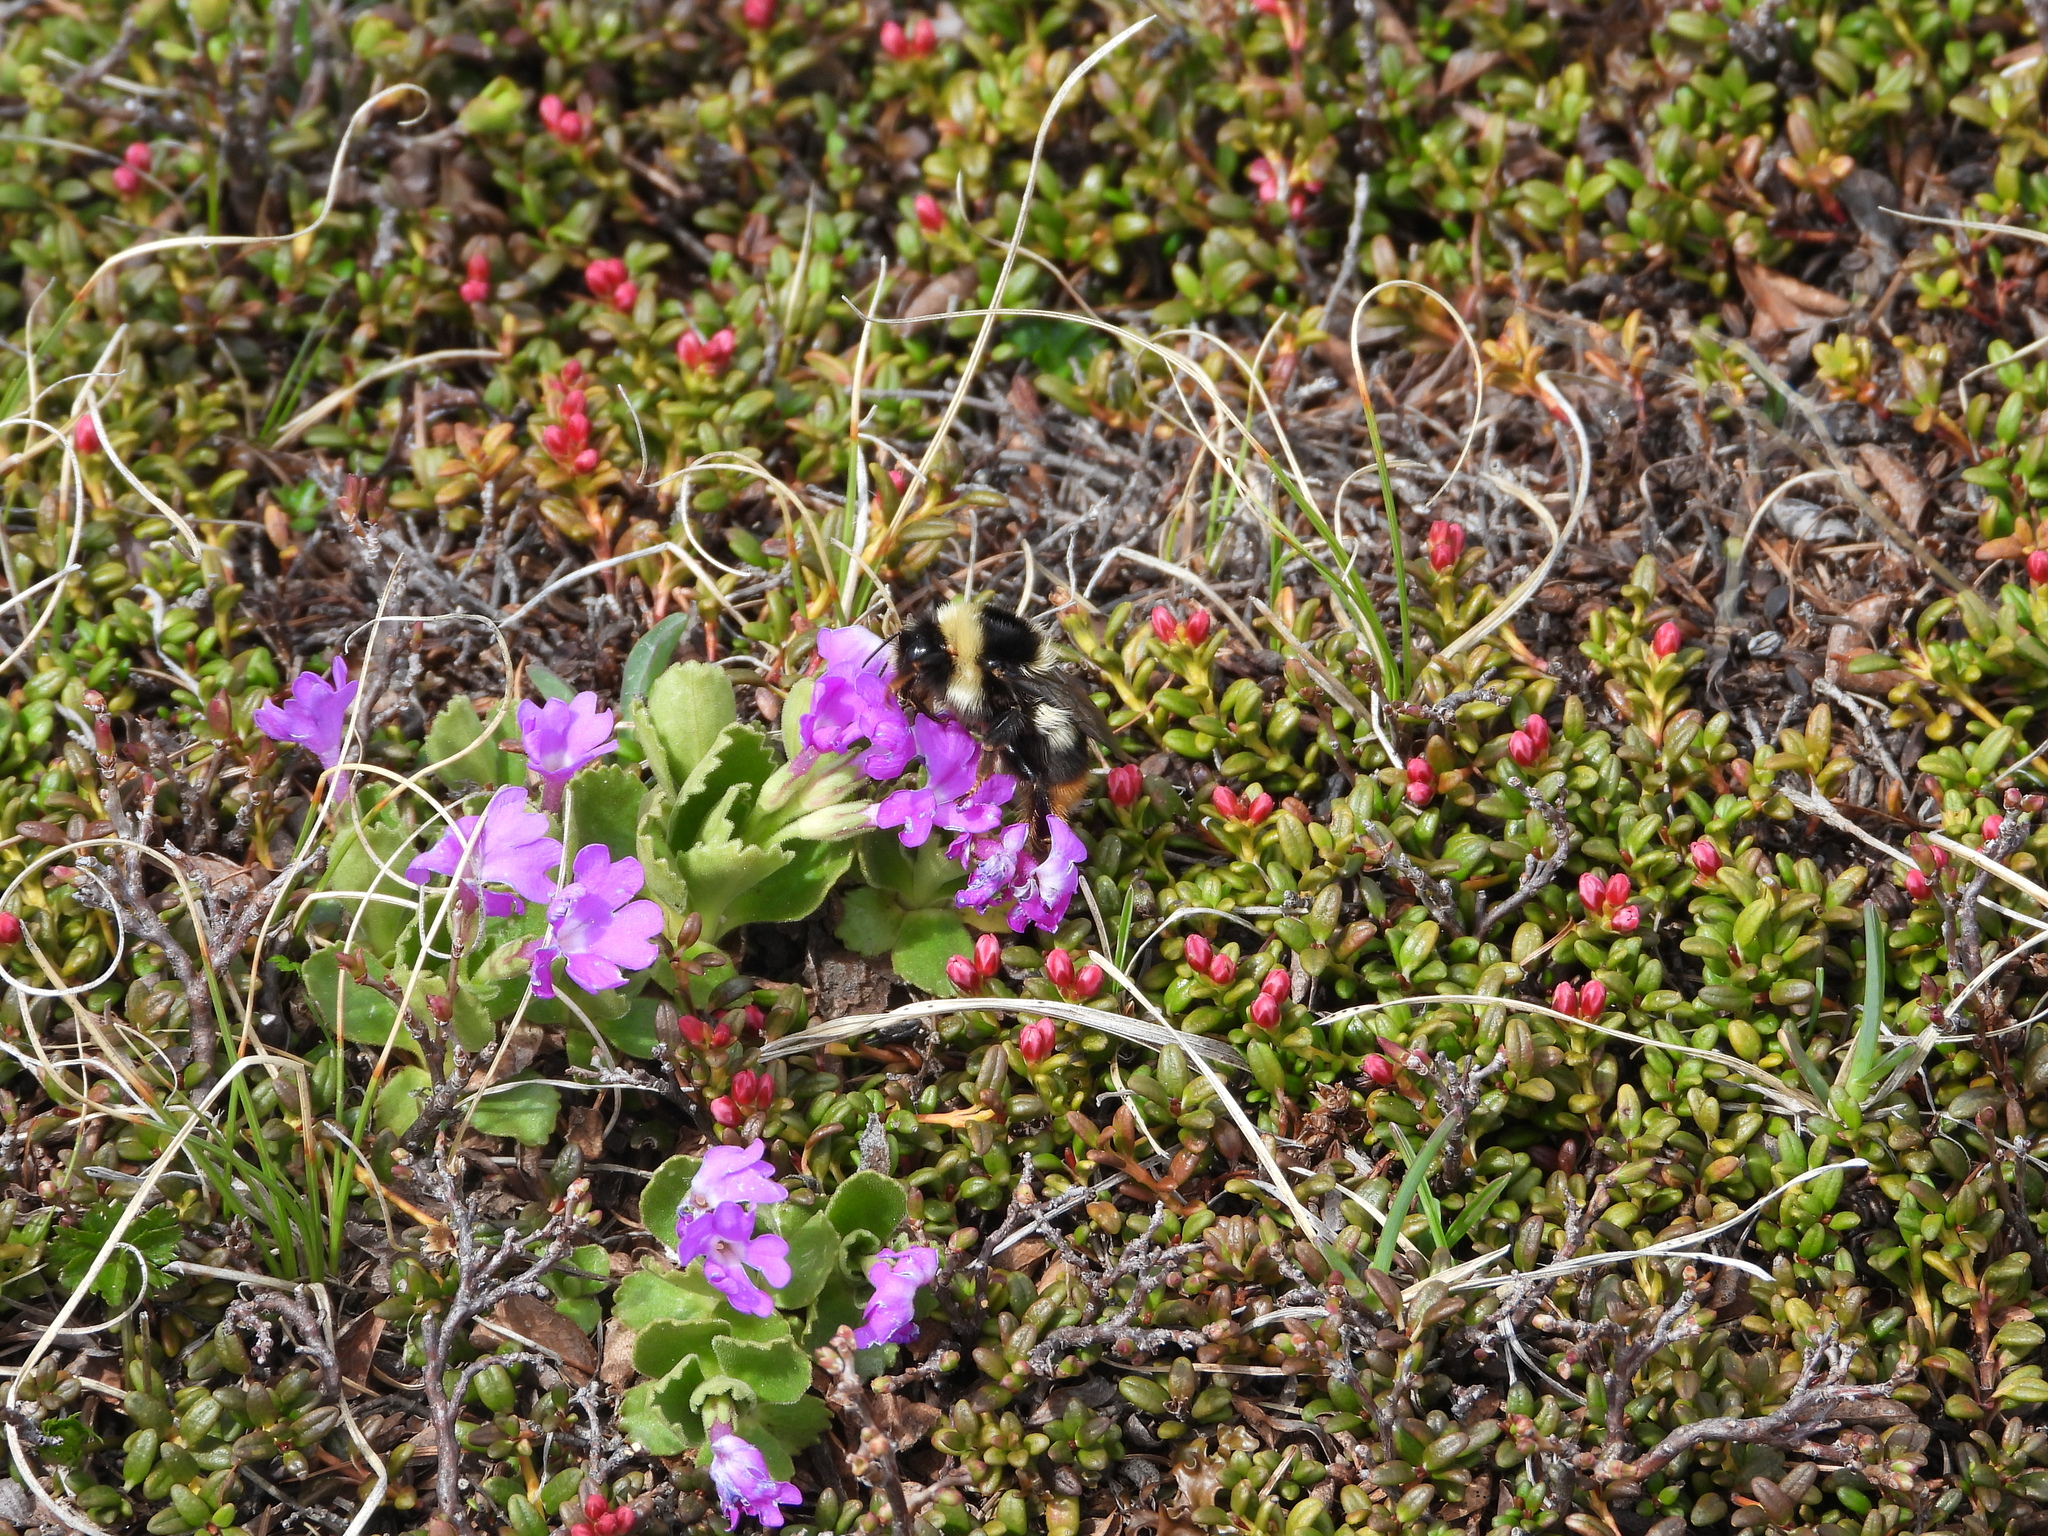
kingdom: Animalia
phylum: Arthropoda
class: Insecta
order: Hymenoptera
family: Apidae
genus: Bombus
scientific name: Bombus sichelii
